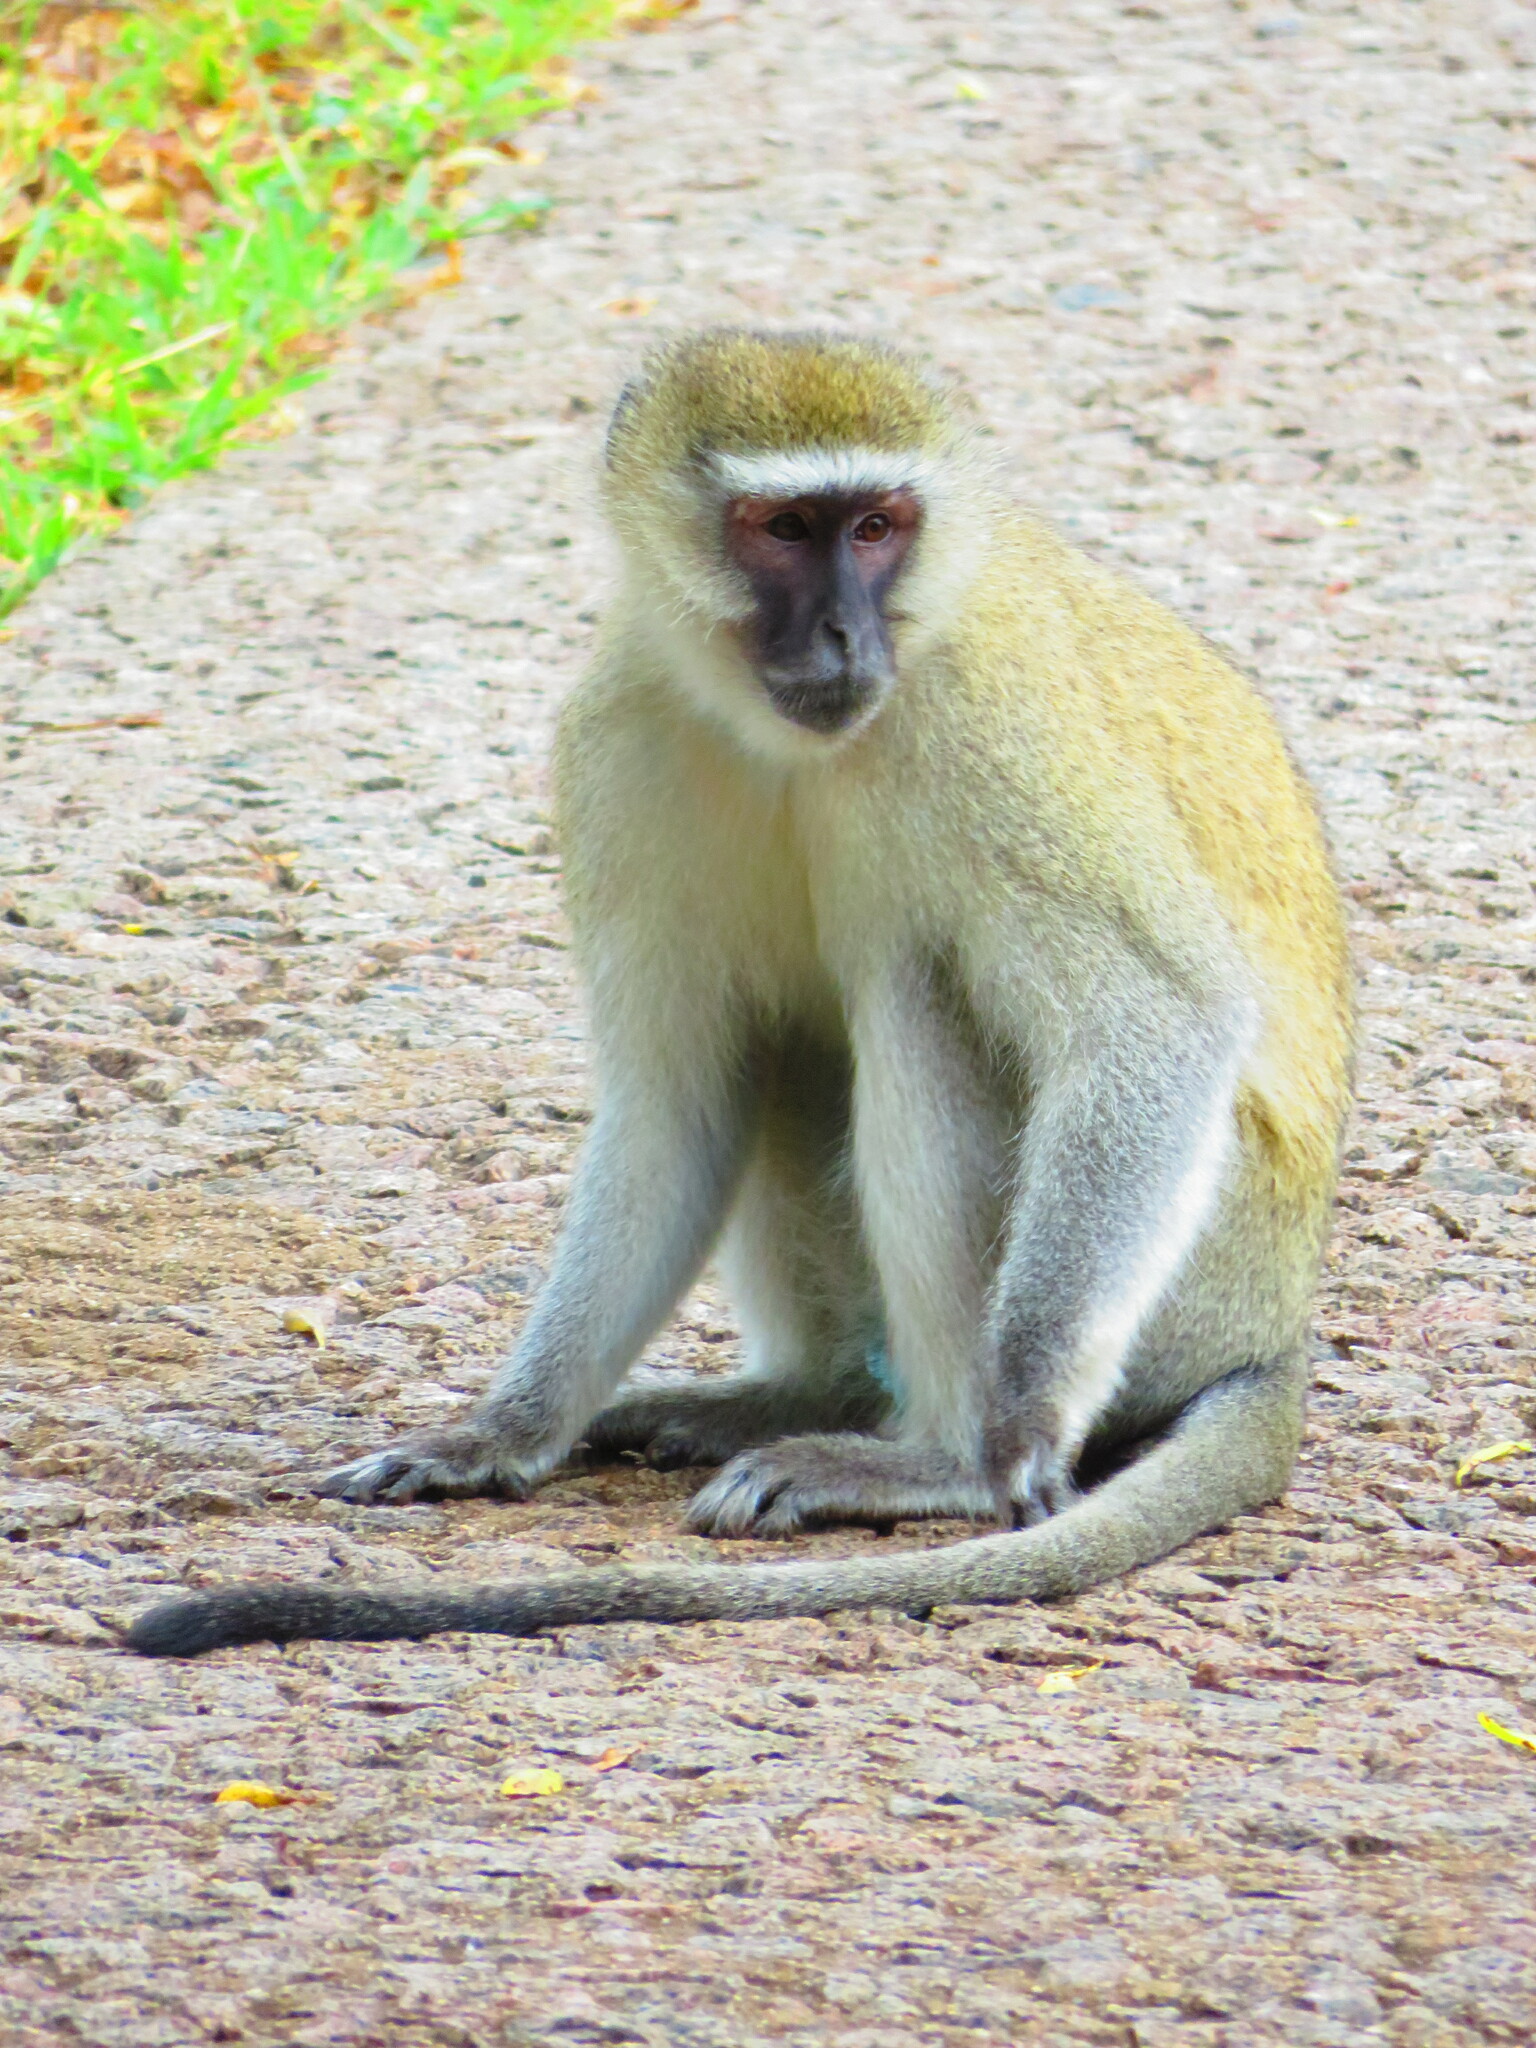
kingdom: Animalia
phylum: Chordata
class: Mammalia
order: Primates
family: Cercopithecidae
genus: Chlorocebus
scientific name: Chlorocebus pygerythrus
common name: Vervet monkey
